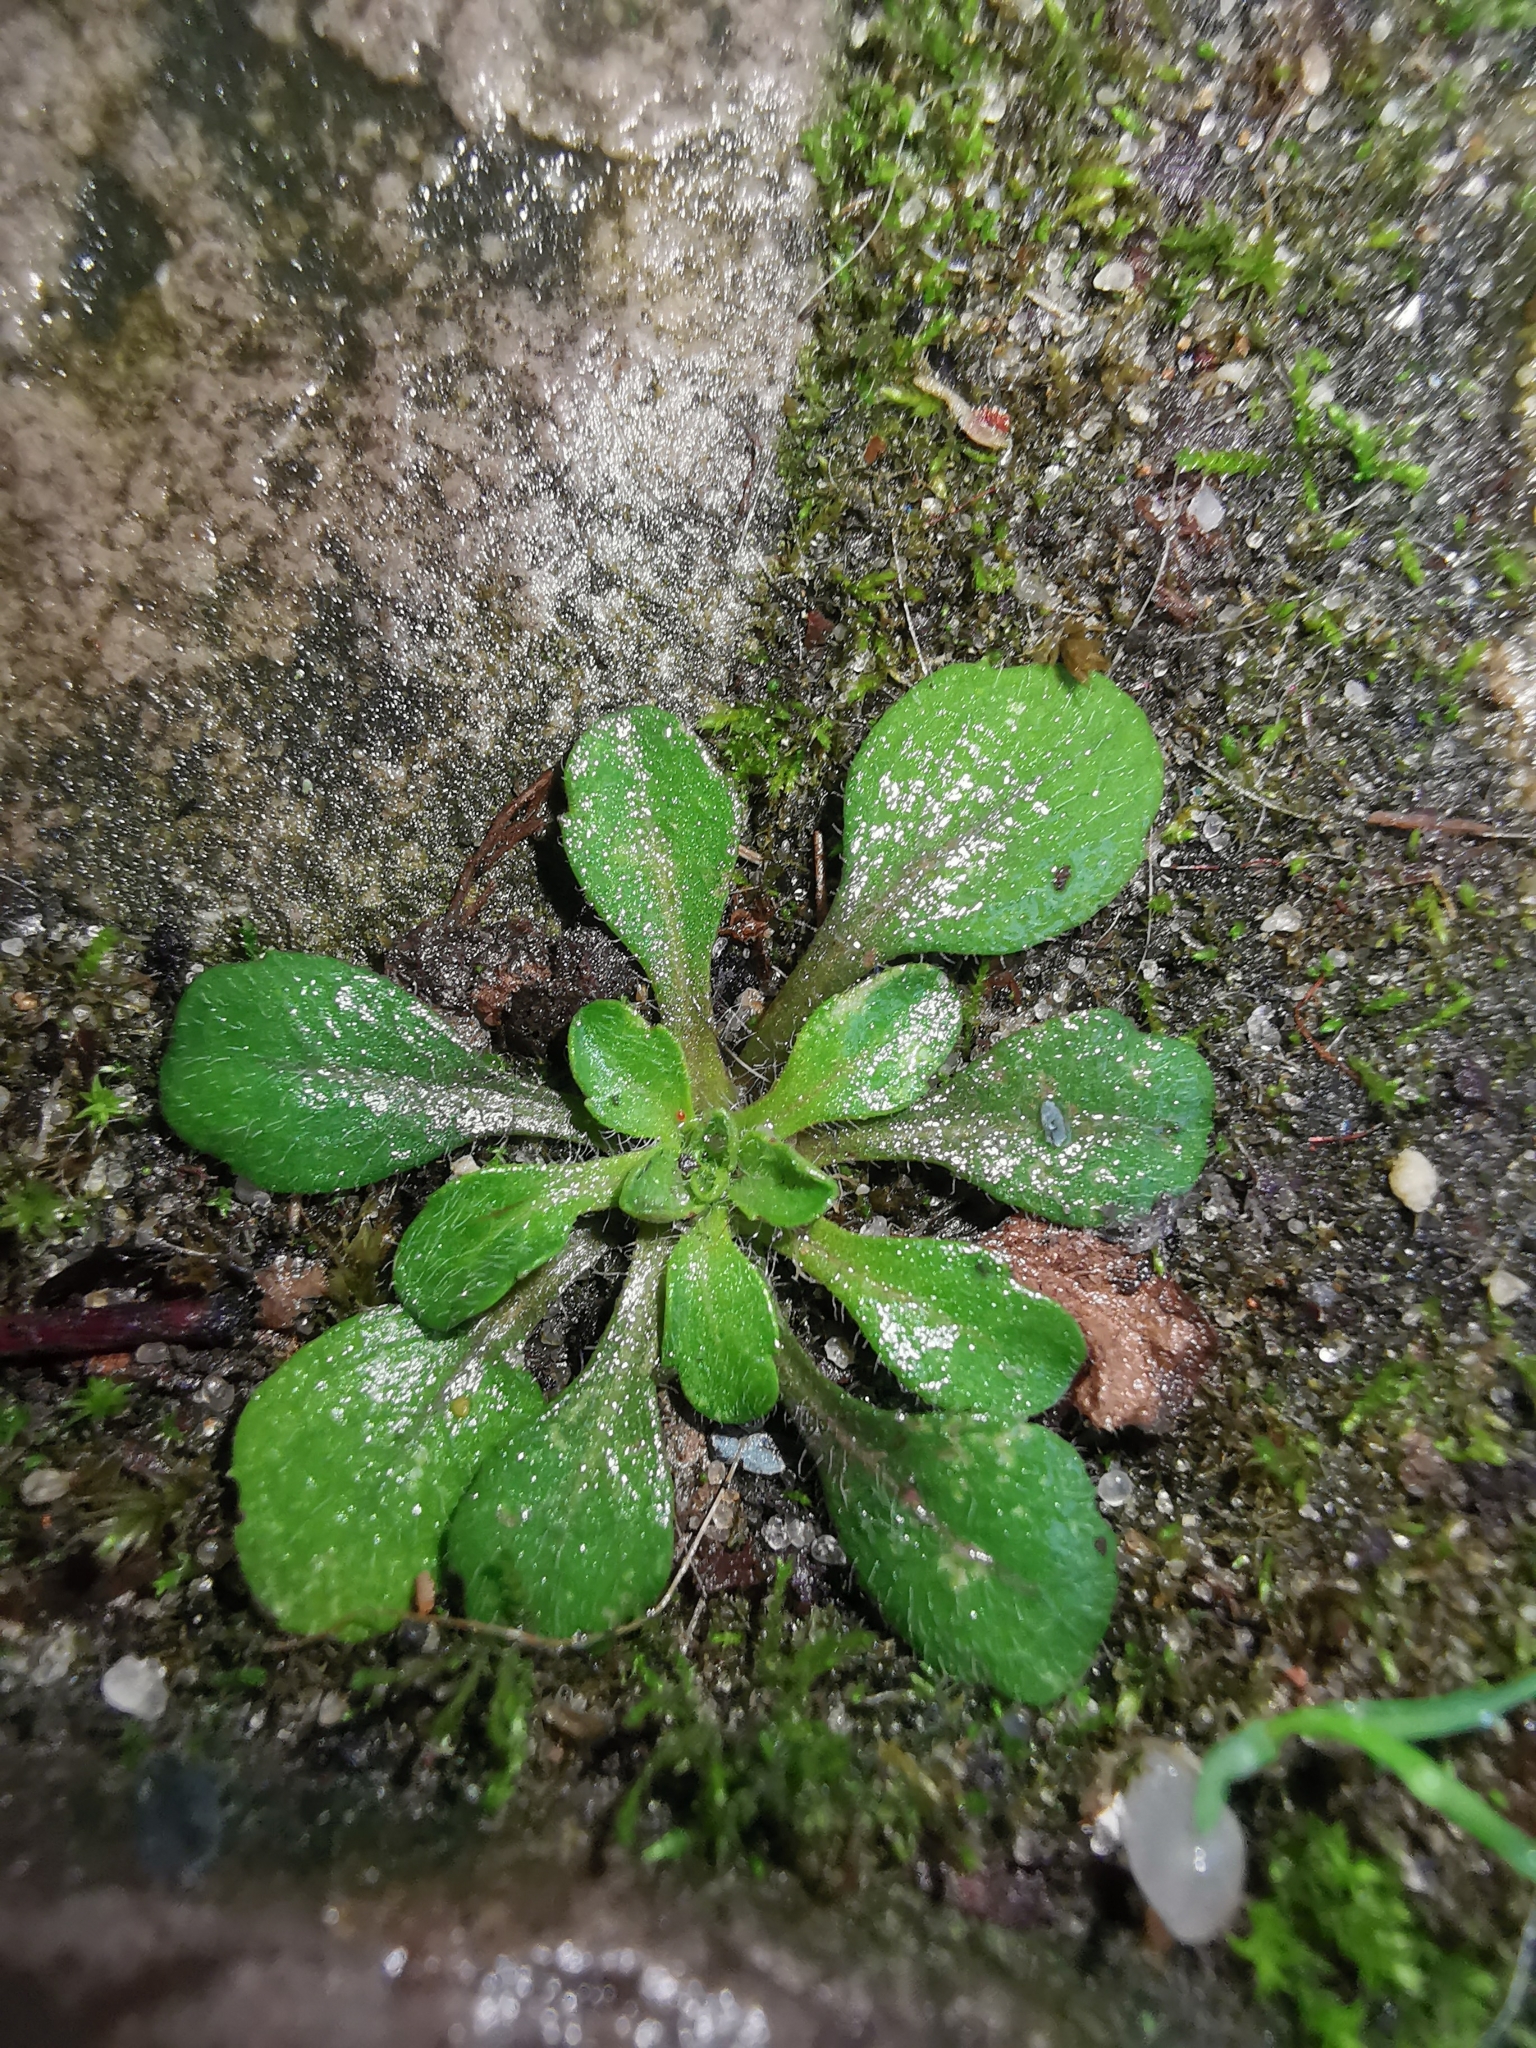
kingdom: Plantae
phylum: Tracheophyta
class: Magnoliopsida
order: Asterales
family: Asteraceae
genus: Erigeron
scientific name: Erigeron canadensis
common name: Canadian fleabane
